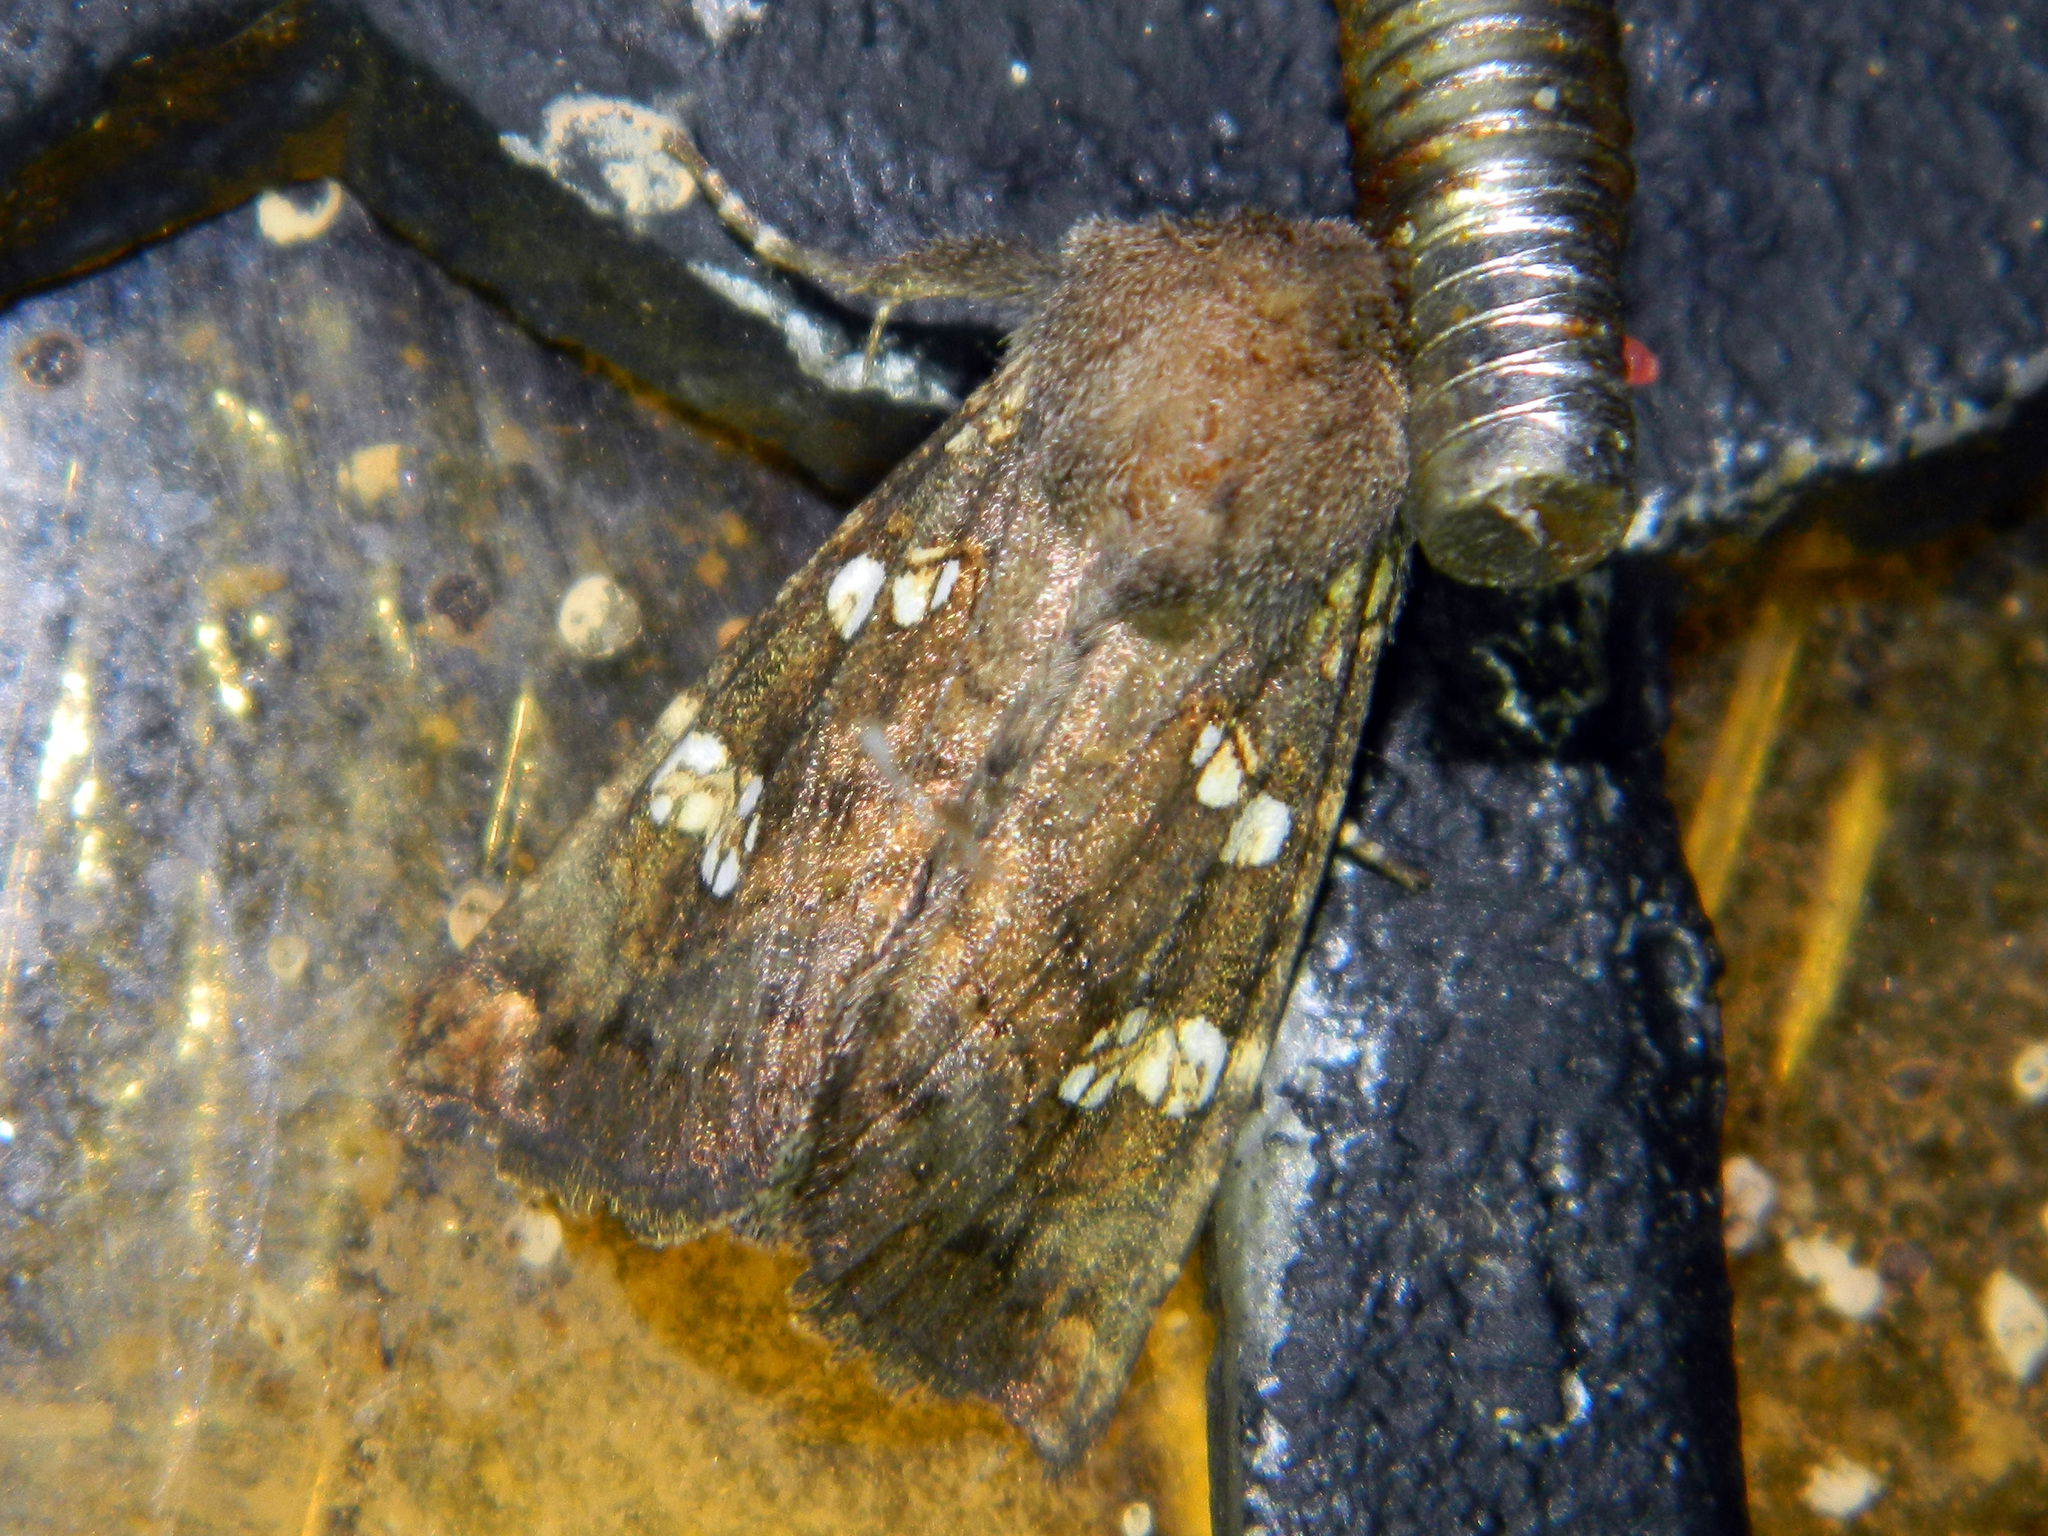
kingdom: Animalia
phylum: Arthropoda
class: Insecta
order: Lepidoptera
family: Noctuidae
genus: Papaipema
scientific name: Papaipema unimoda
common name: Meadow rue borer moth
